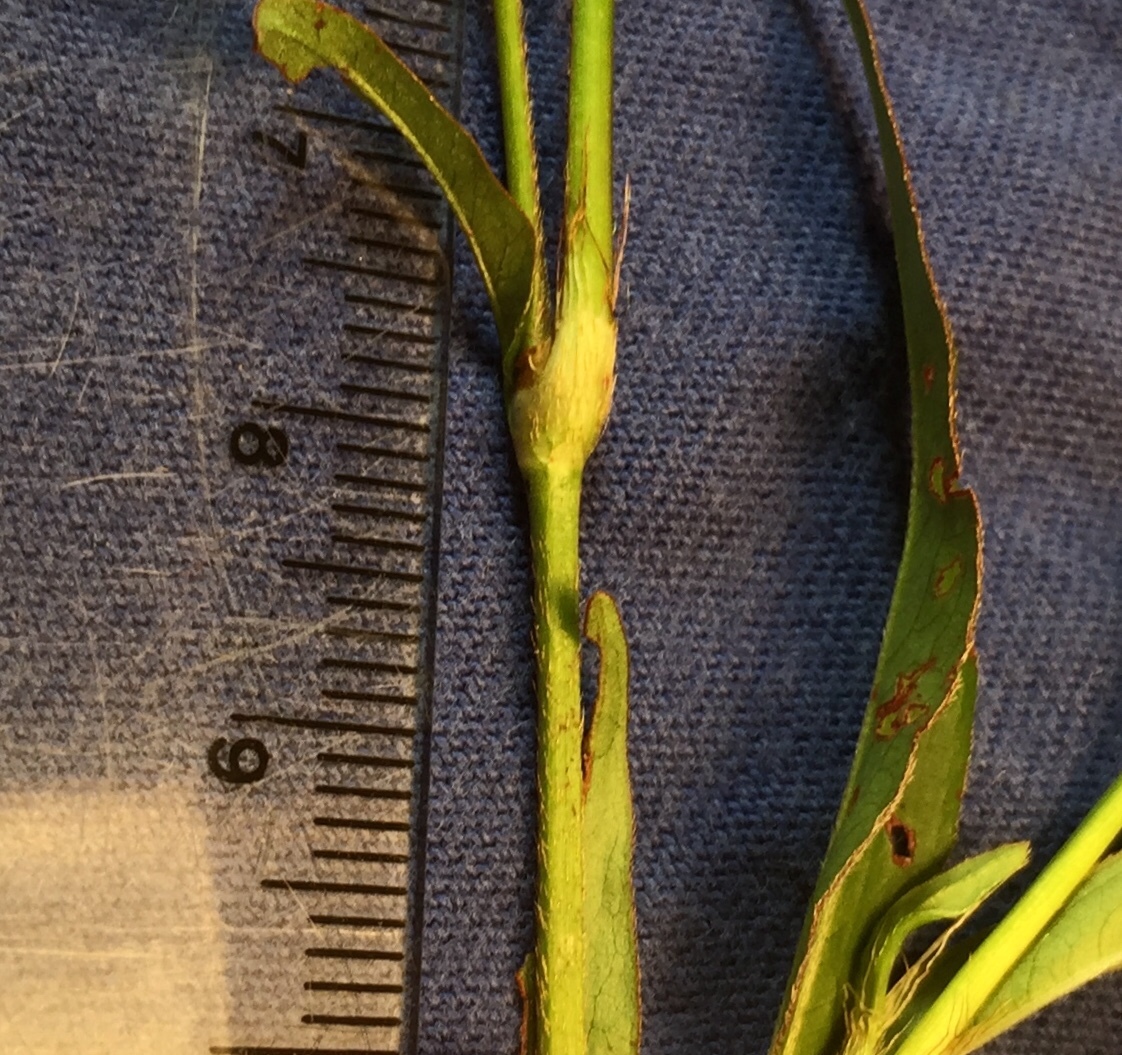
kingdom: Plantae
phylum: Tracheophyta
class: Magnoliopsida
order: Caryophyllales
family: Polygonaceae
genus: Persicaria
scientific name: Persicaria setacea
